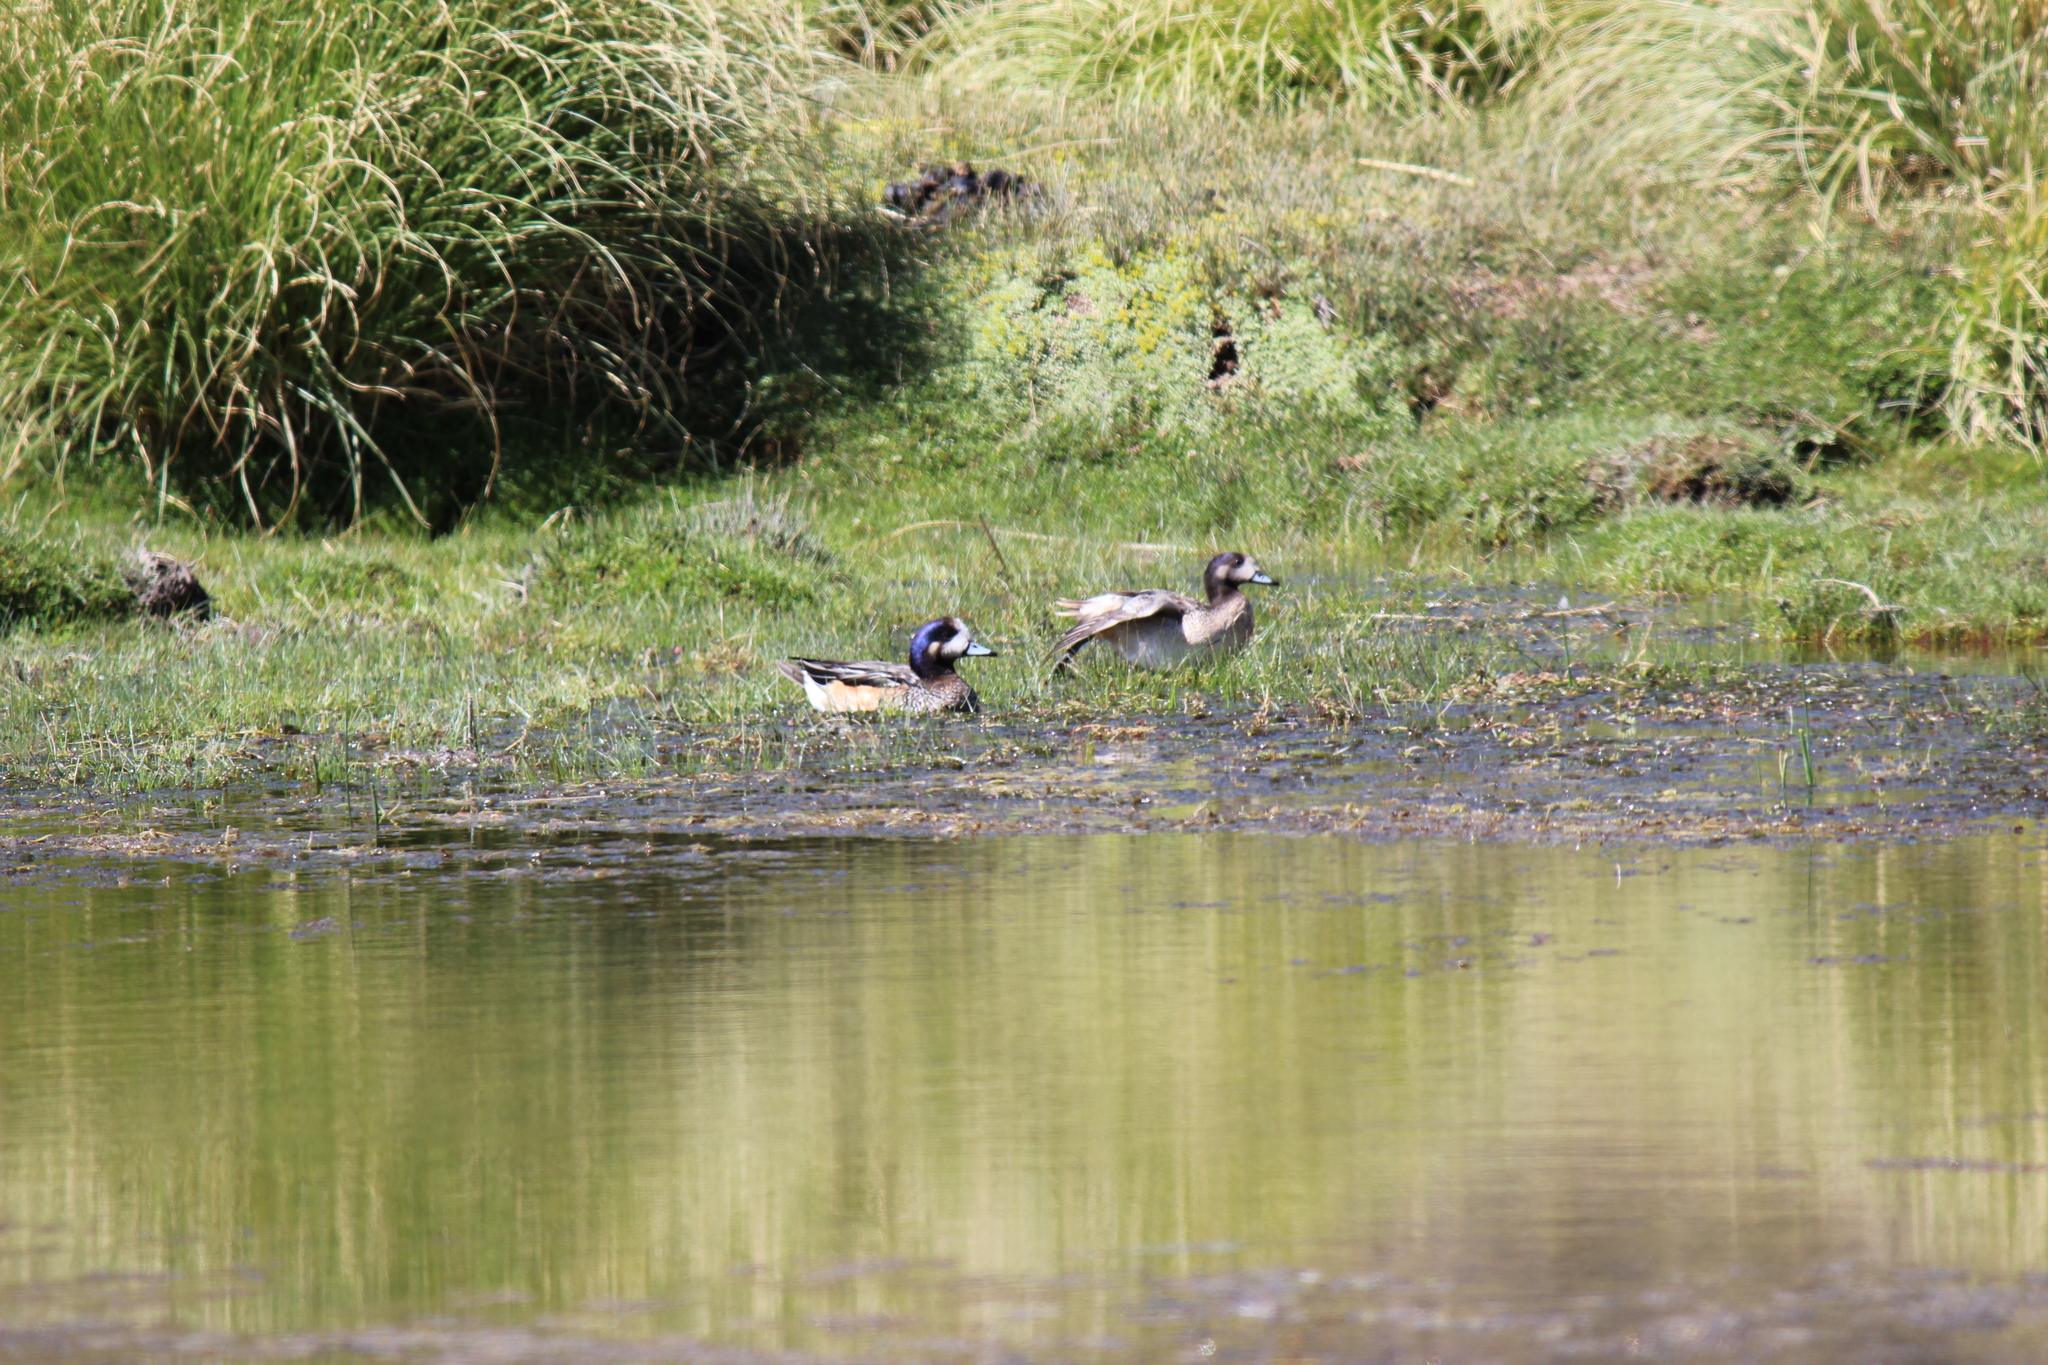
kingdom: Animalia
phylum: Chordata
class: Aves
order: Anseriformes
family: Anatidae
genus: Mareca
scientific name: Mareca sibilatrix
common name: Chiloe wigeon
